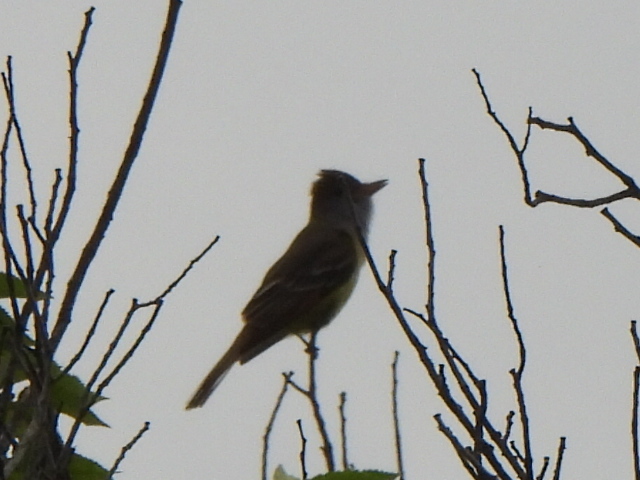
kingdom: Animalia
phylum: Chordata
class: Aves
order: Passeriformes
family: Tyrannidae
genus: Myiarchus
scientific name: Myiarchus crinitus
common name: Great crested flycatcher
